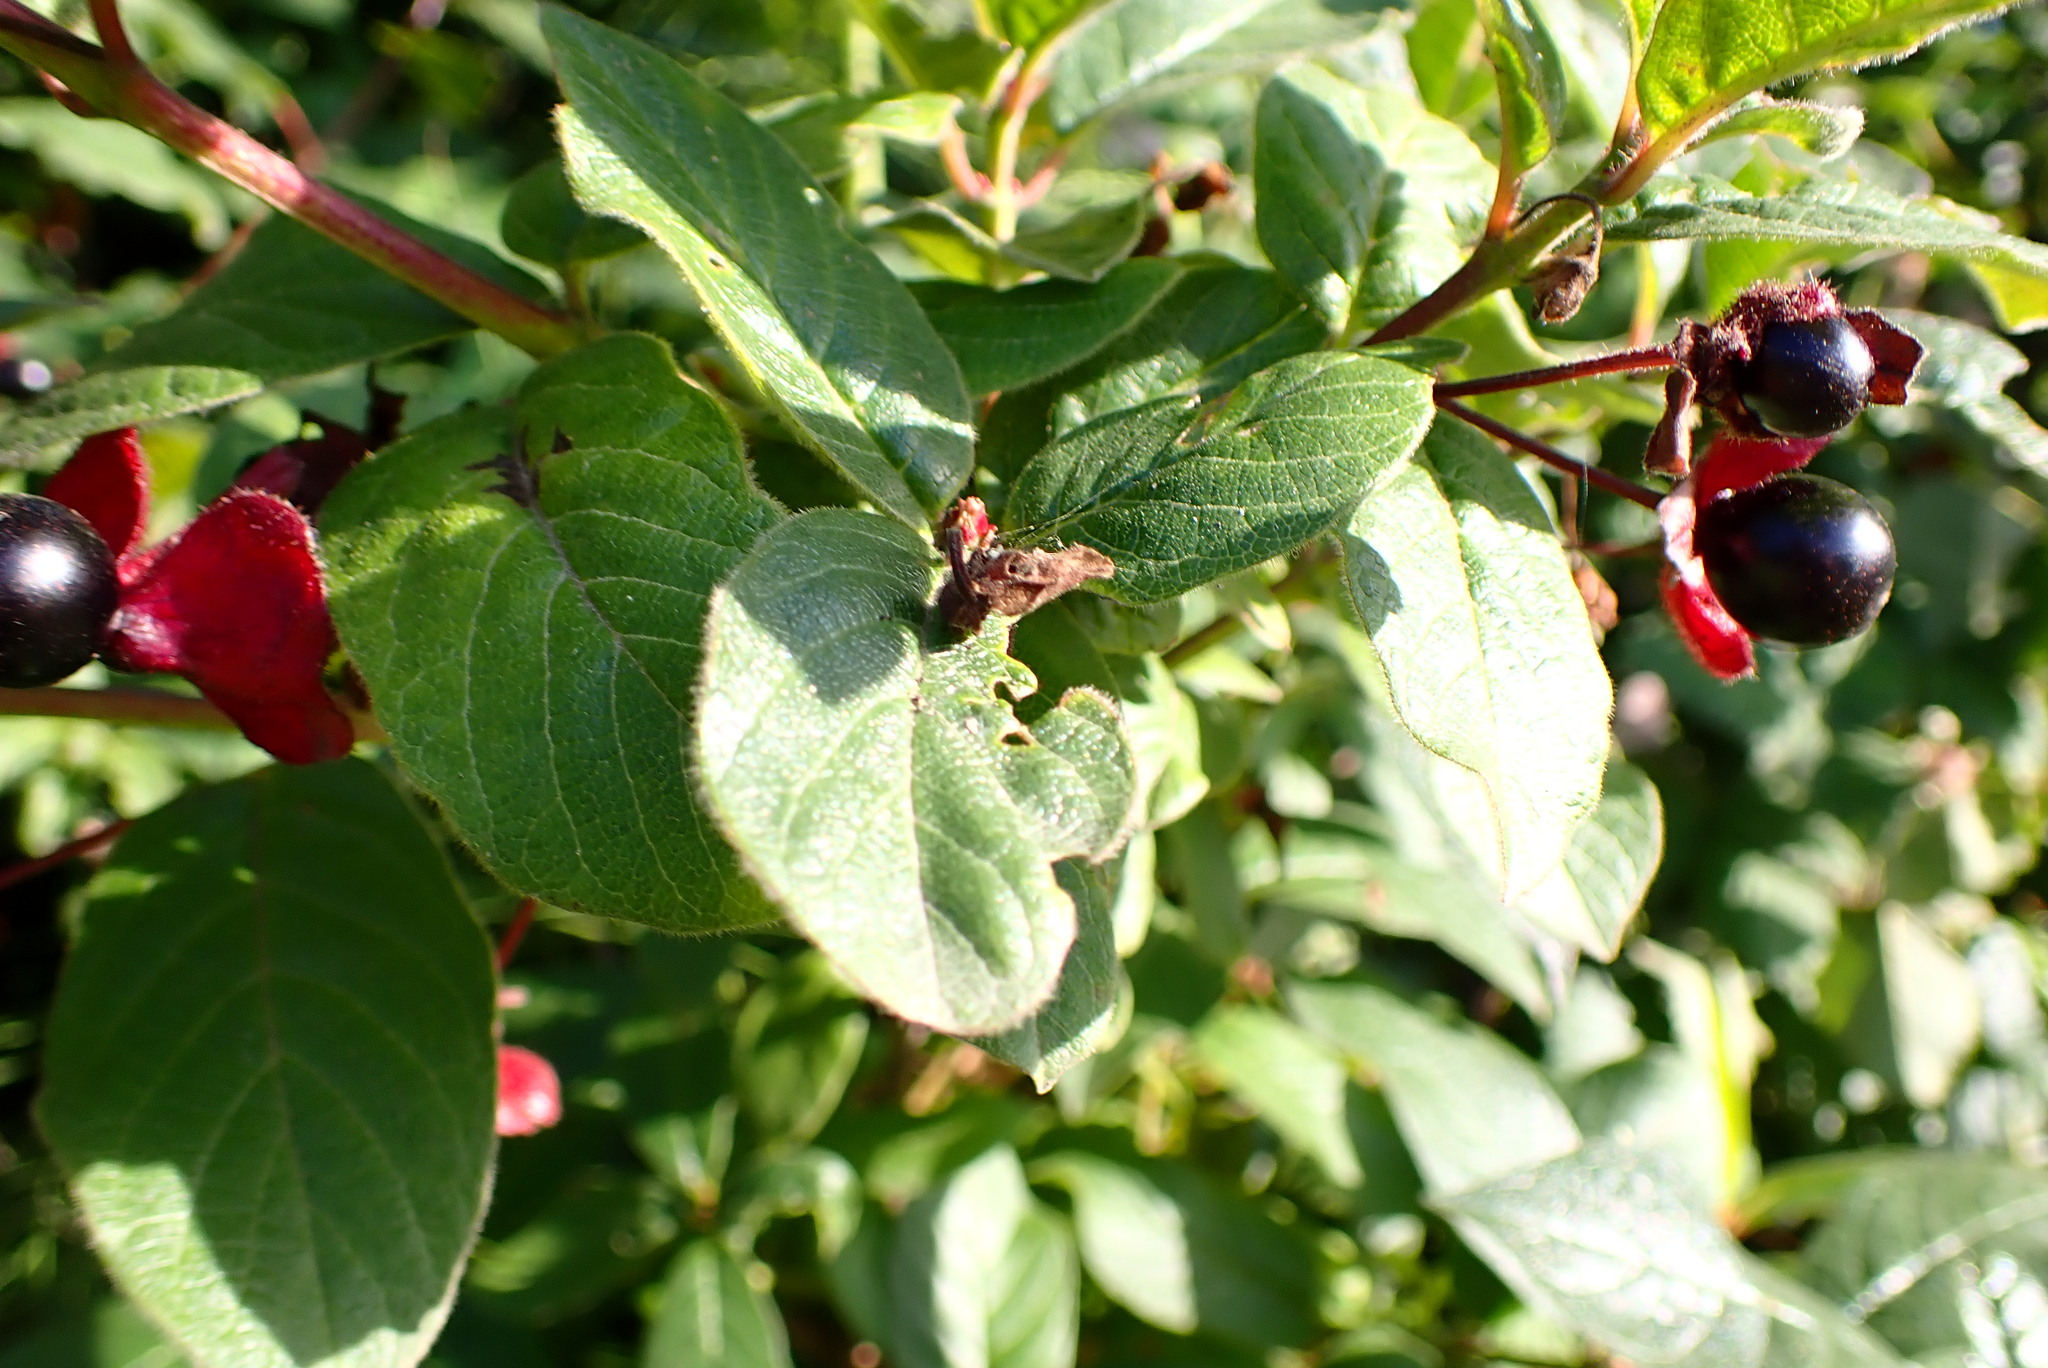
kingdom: Plantae
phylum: Tracheophyta
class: Magnoliopsida
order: Dipsacales
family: Caprifoliaceae
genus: Lonicera
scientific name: Lonicera involucrata
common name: Californian honeysuckle
